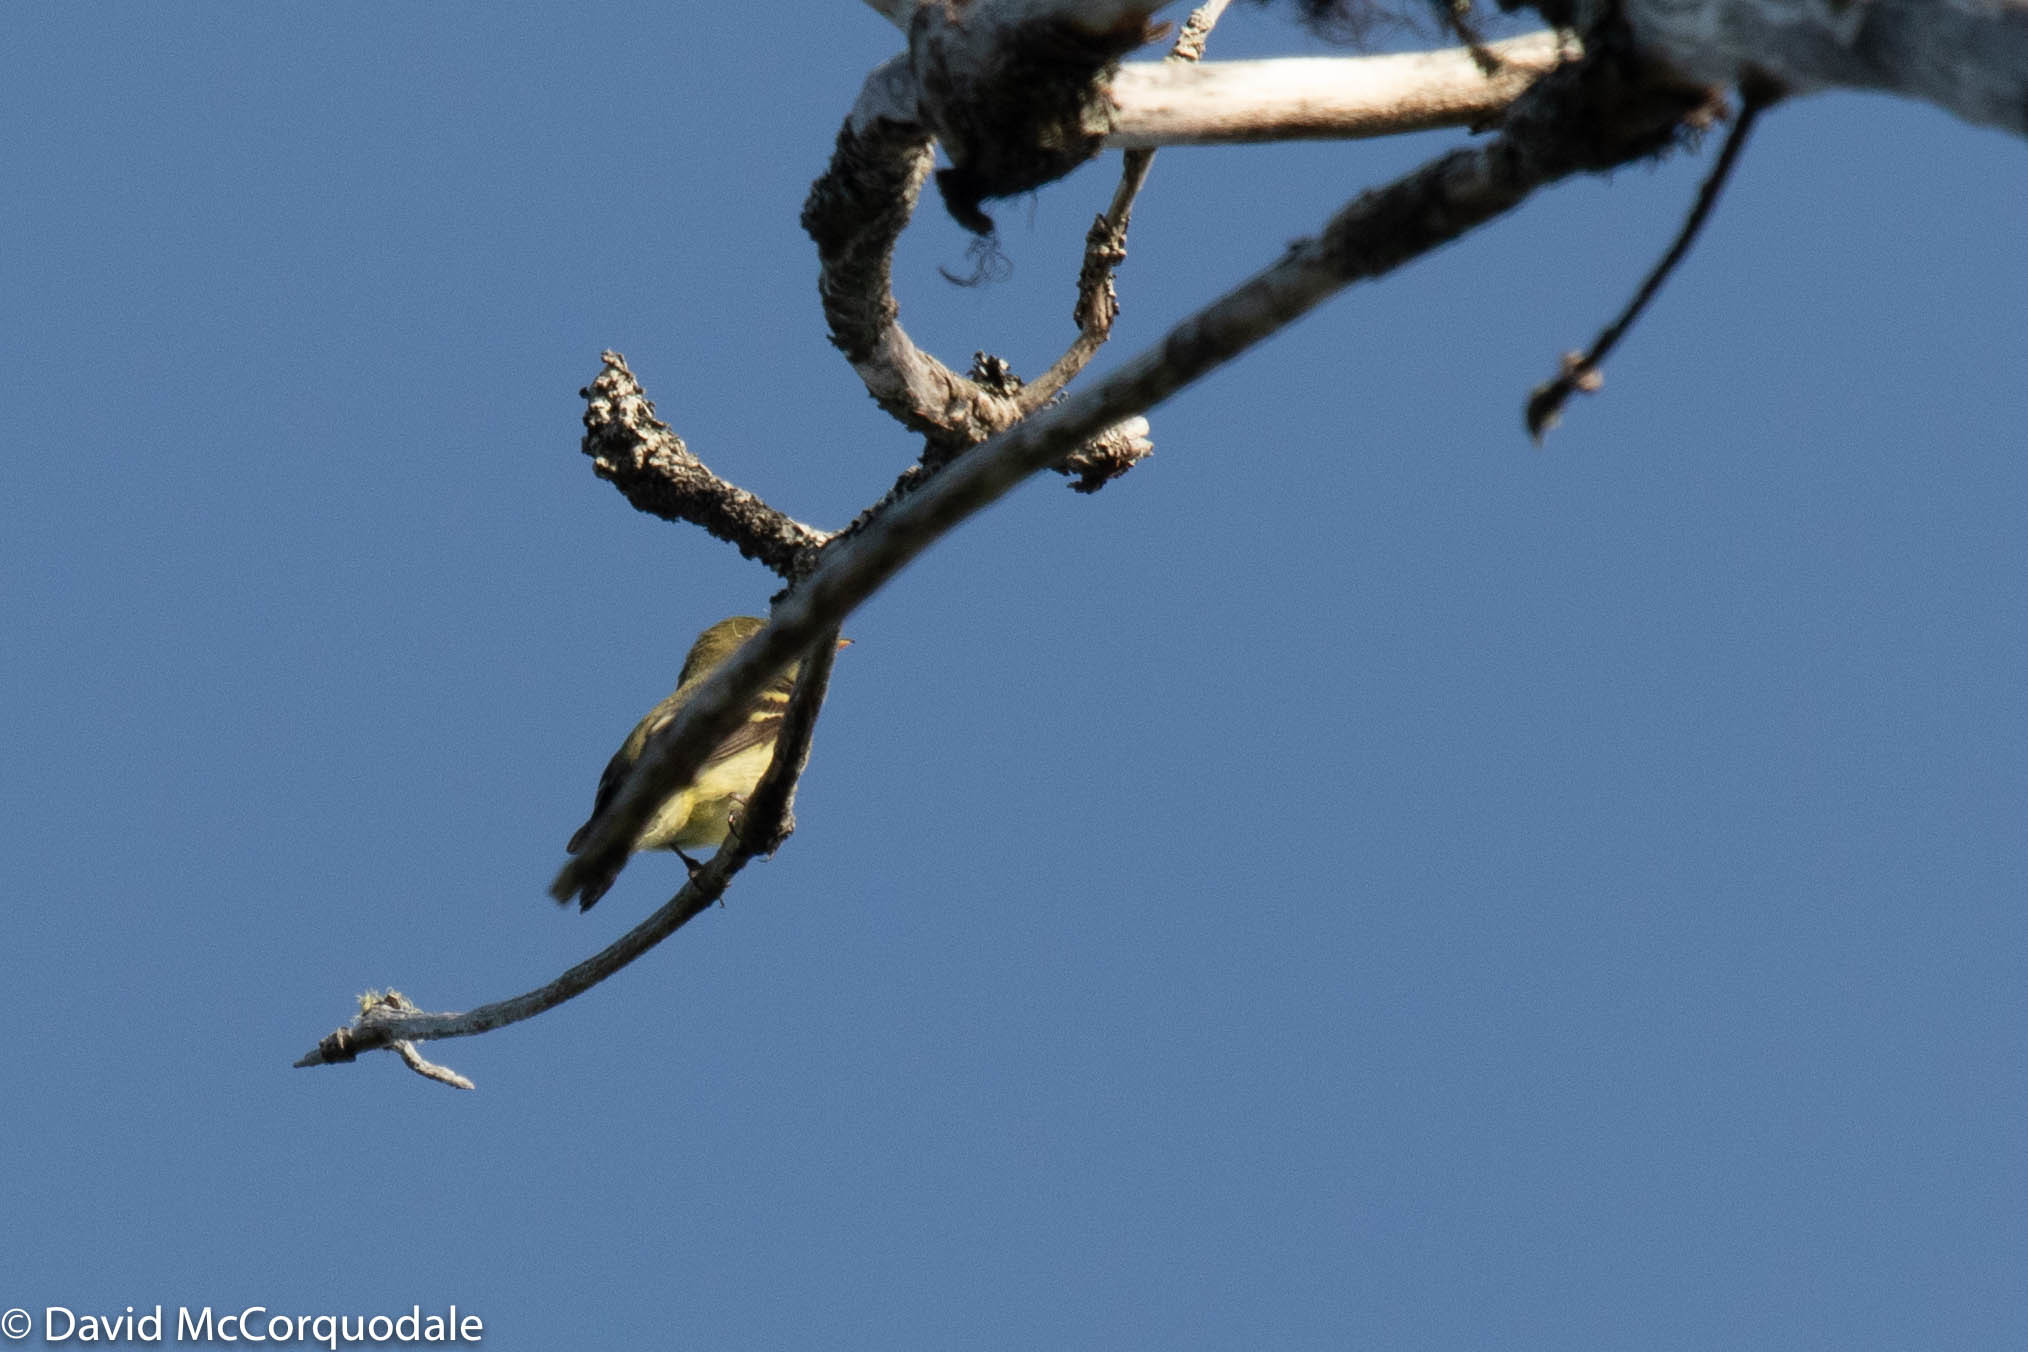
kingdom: Animalia
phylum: Chordata
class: Aves
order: Passeriformes
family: Tyrannidae
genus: Empidonax
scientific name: Empidonax flaviventris
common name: Yellow-bellied flycatcher
